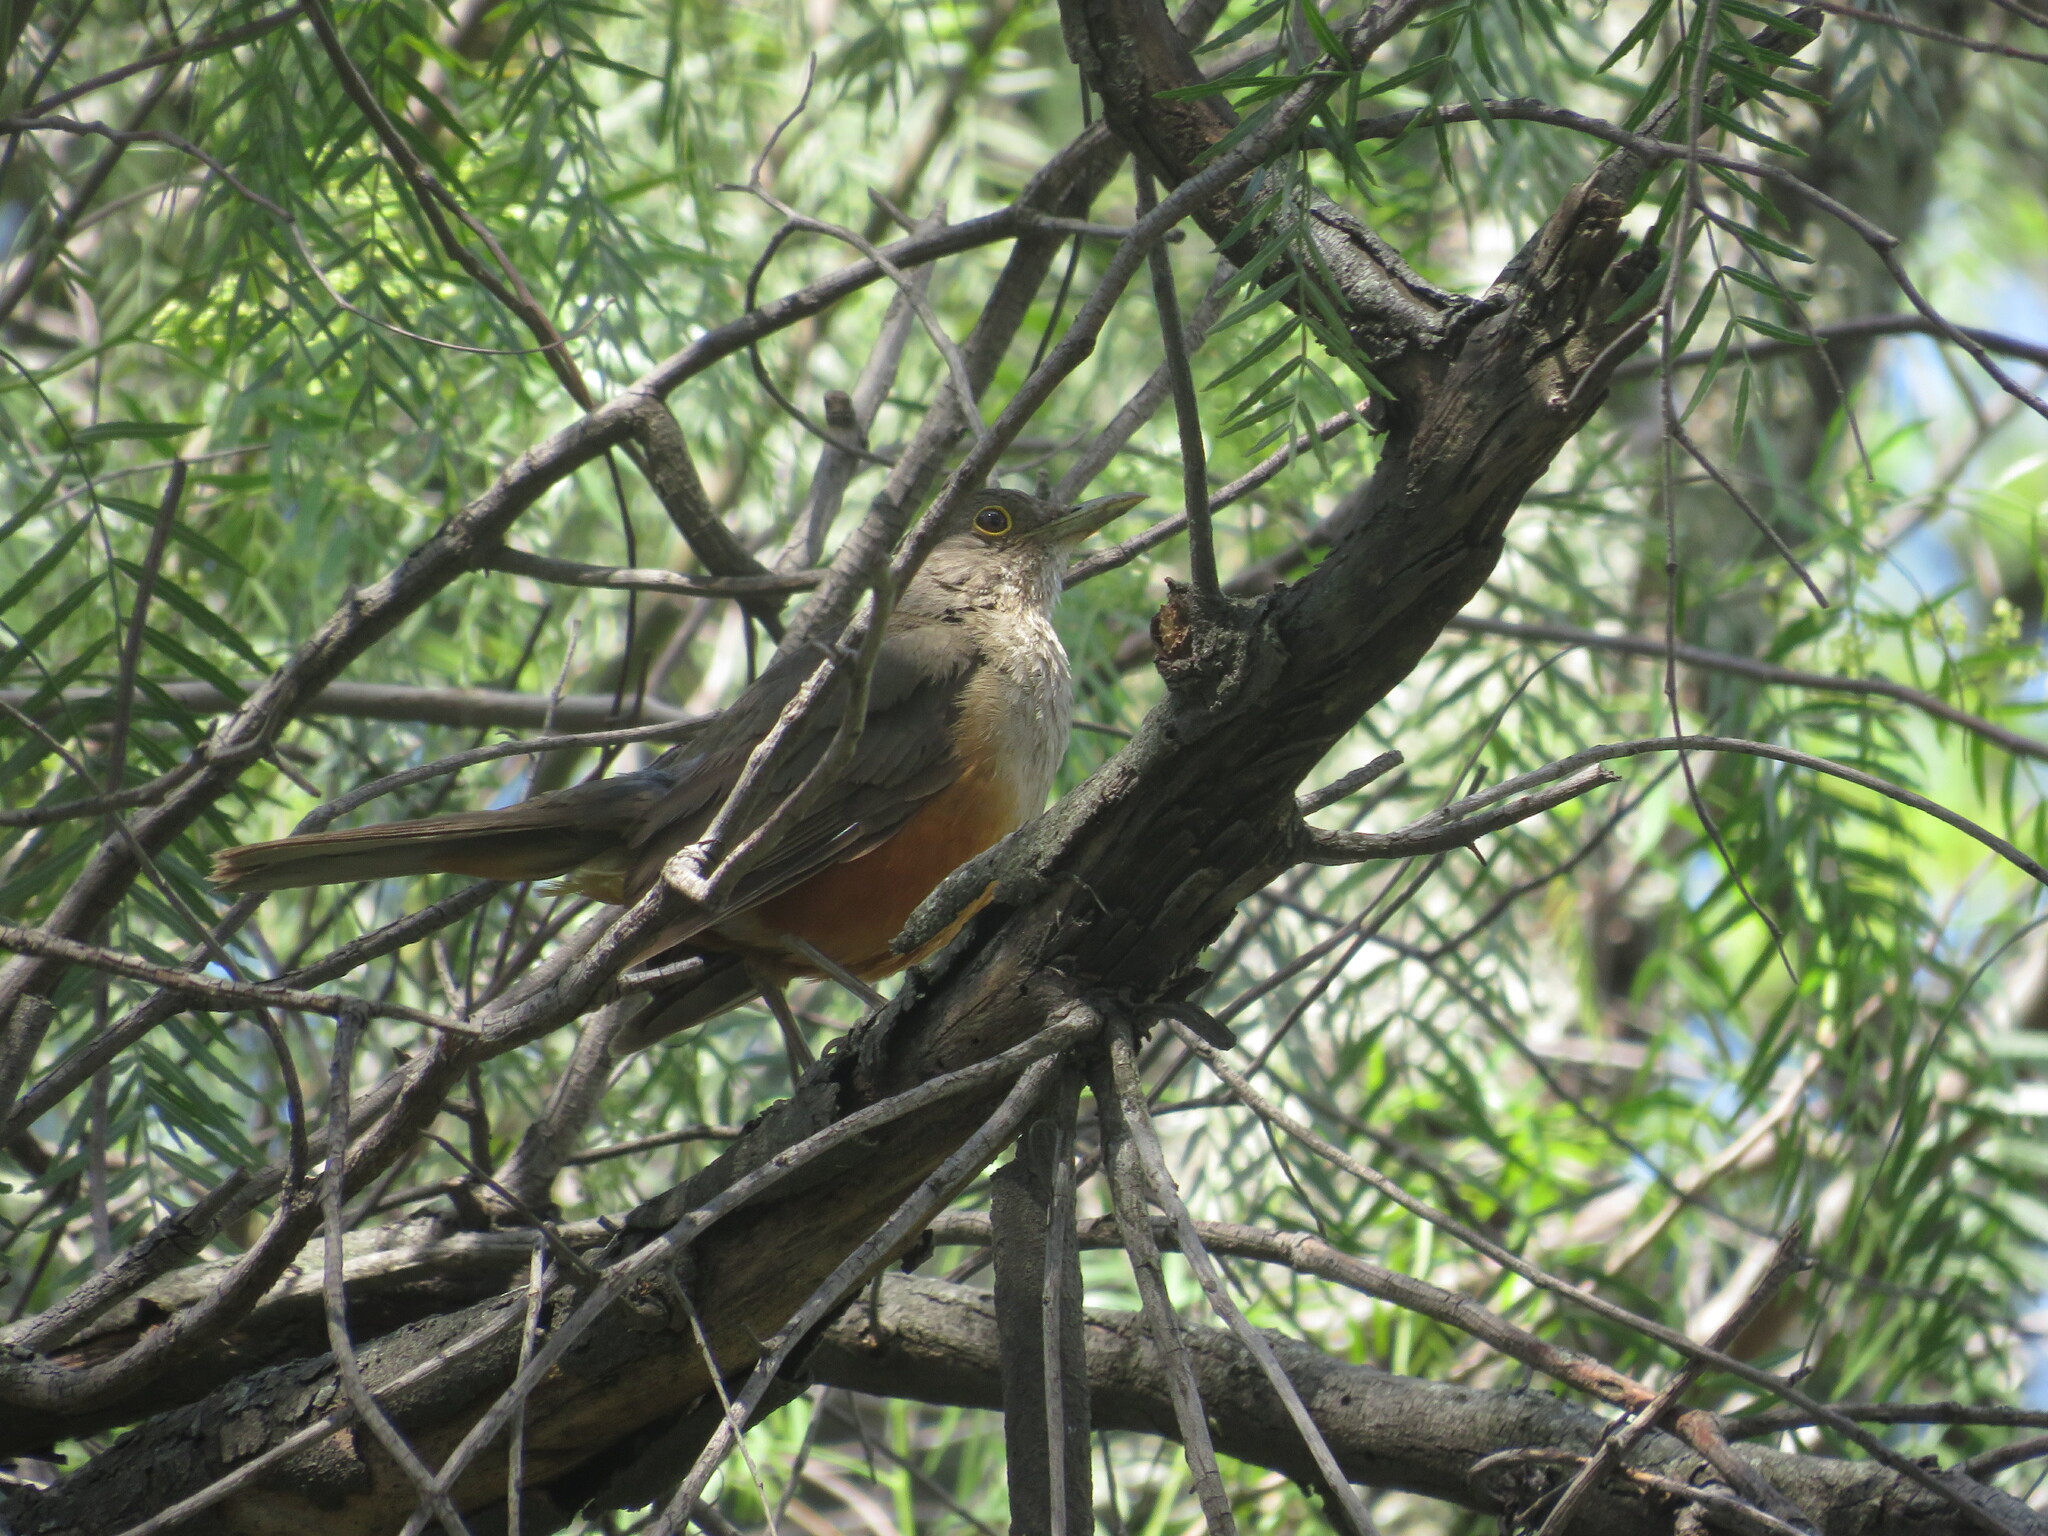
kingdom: Animalia
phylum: Chordata
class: Aves
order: Passeriformes
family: Turdidae
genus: Turdus
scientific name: Turdus rufiventris
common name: Rufous-bellied thrush
